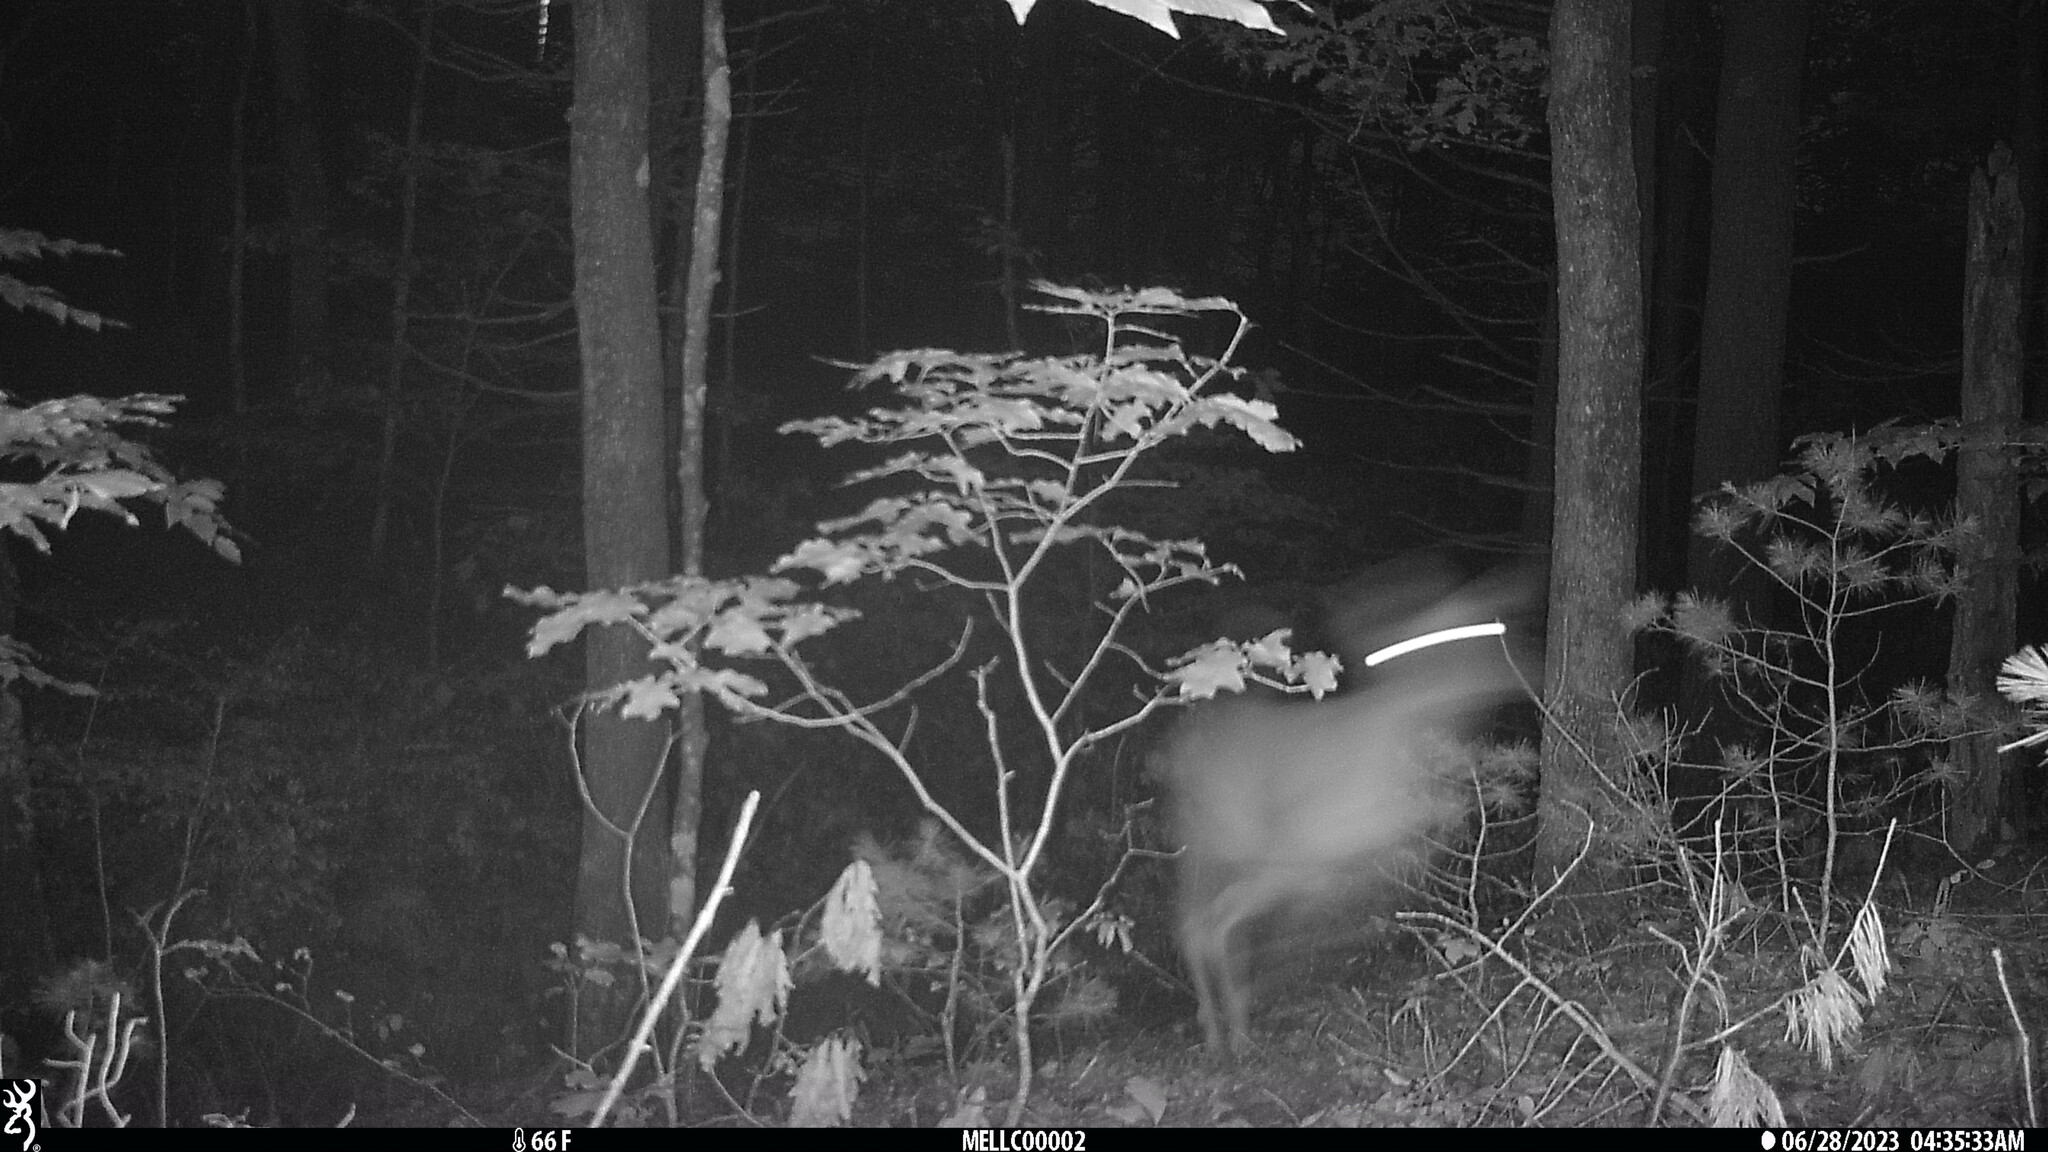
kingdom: Animalia
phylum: Chordata
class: Mammalia
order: Artiodactyla
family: Cervidae
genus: Odocoileus
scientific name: Odocoileus virginianus
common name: White-tailed deer
